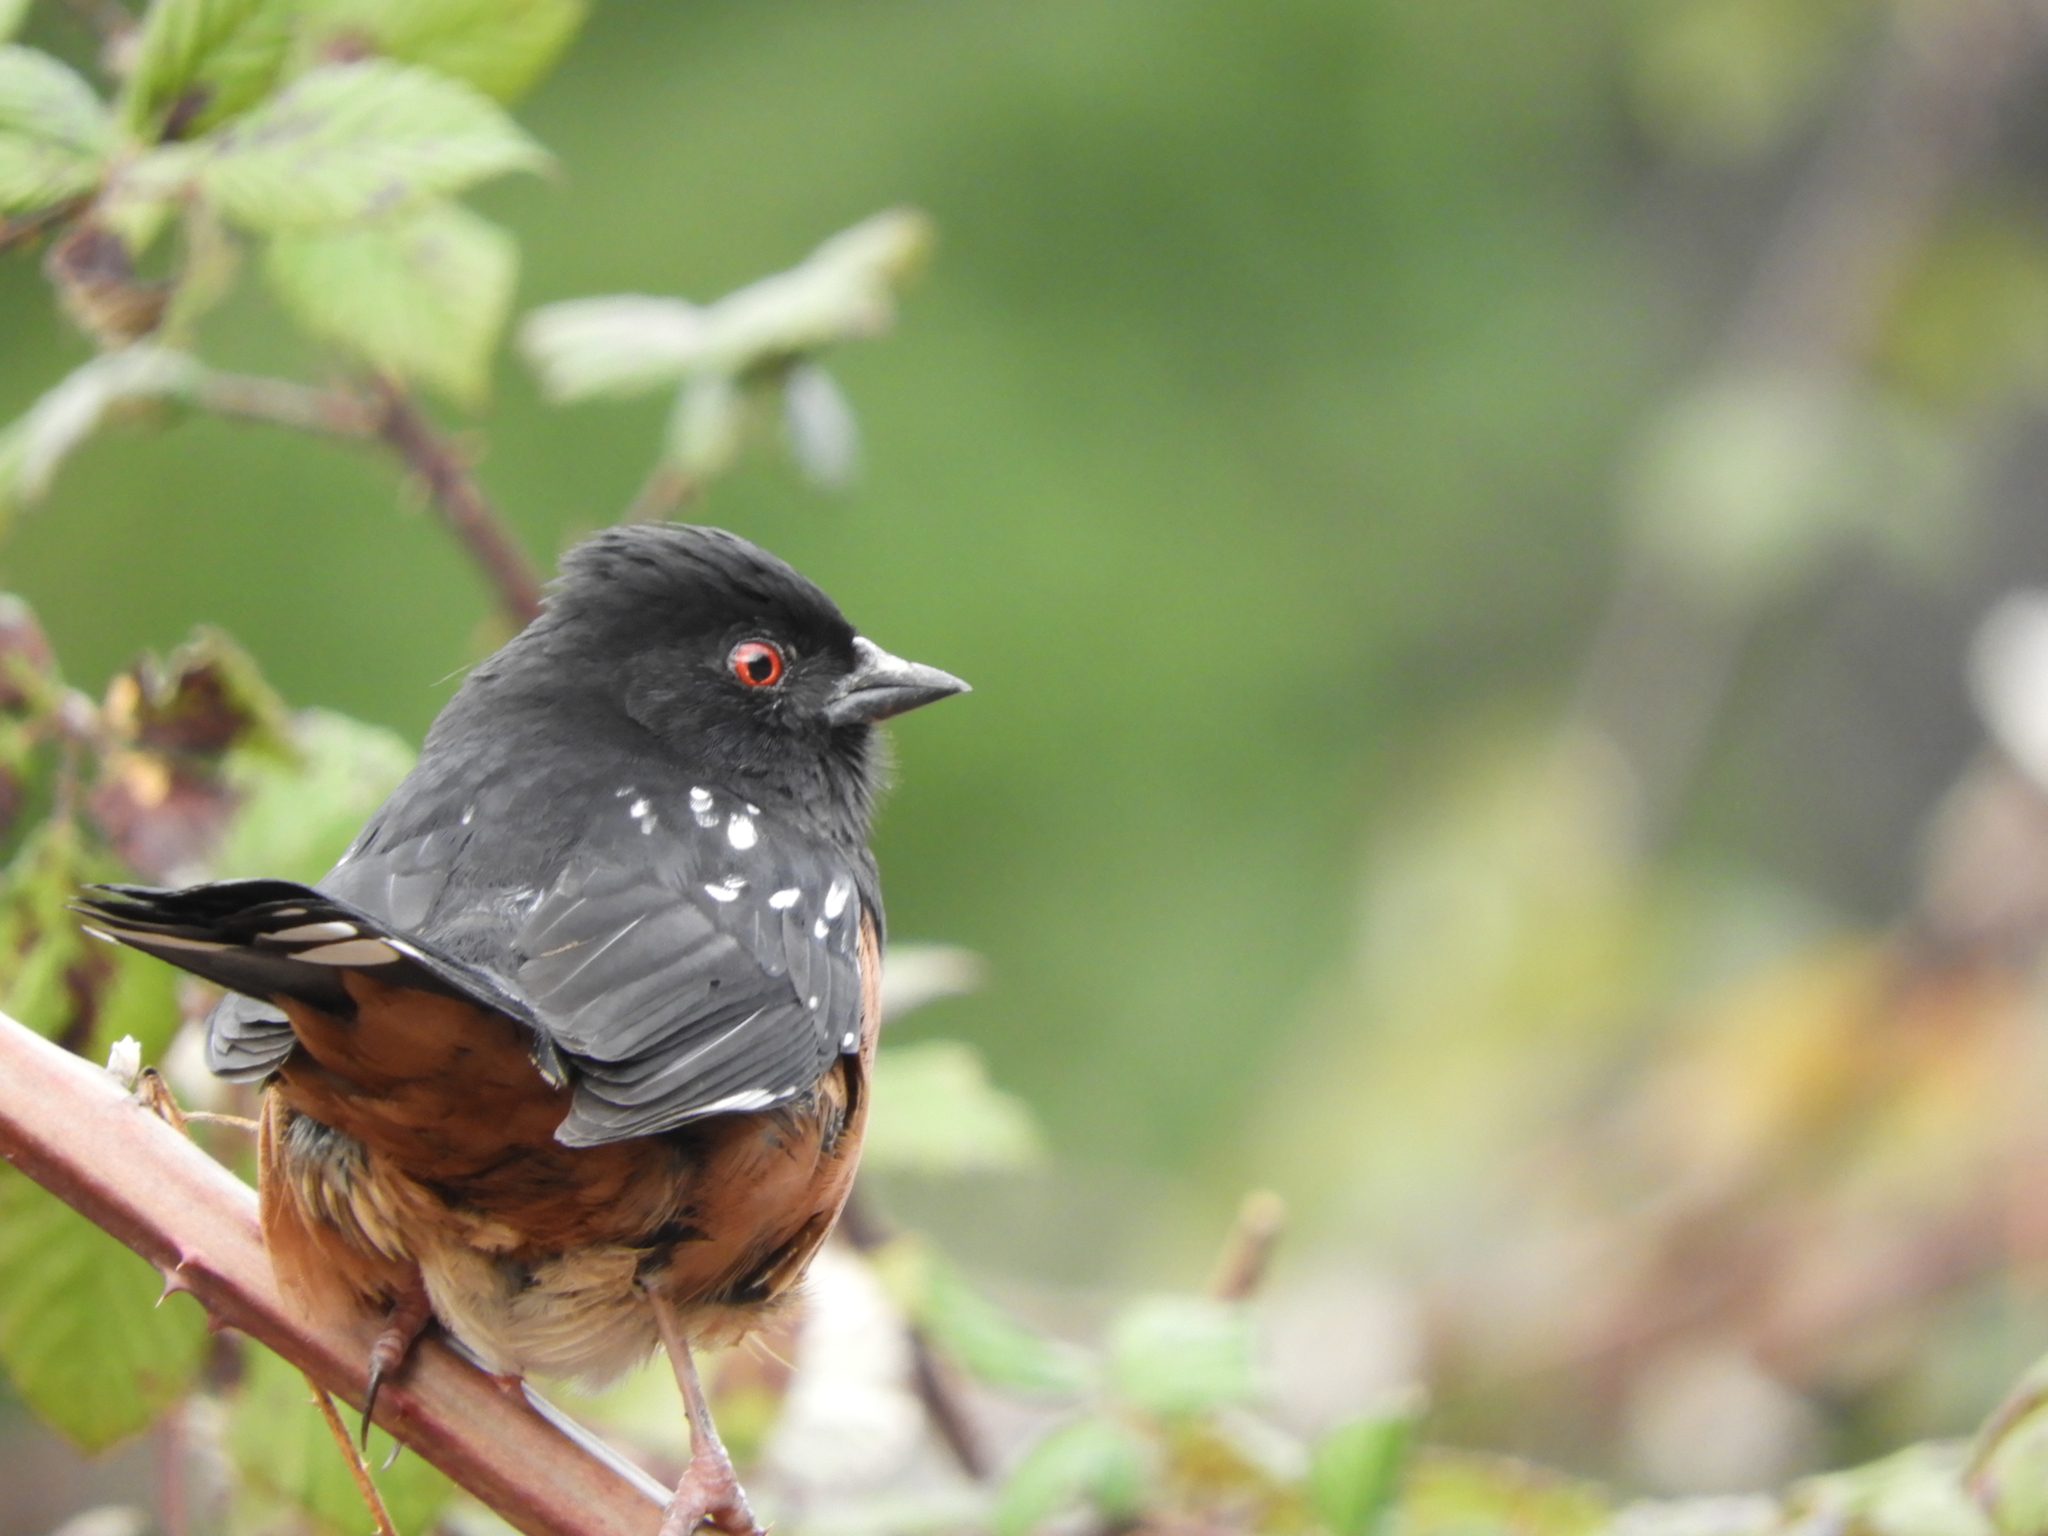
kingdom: Animalia
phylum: Chordata
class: Aves
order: Passeriformes
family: Passerellidae
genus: Pipilo
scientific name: Pipilo maculatus
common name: Spotted towhee
